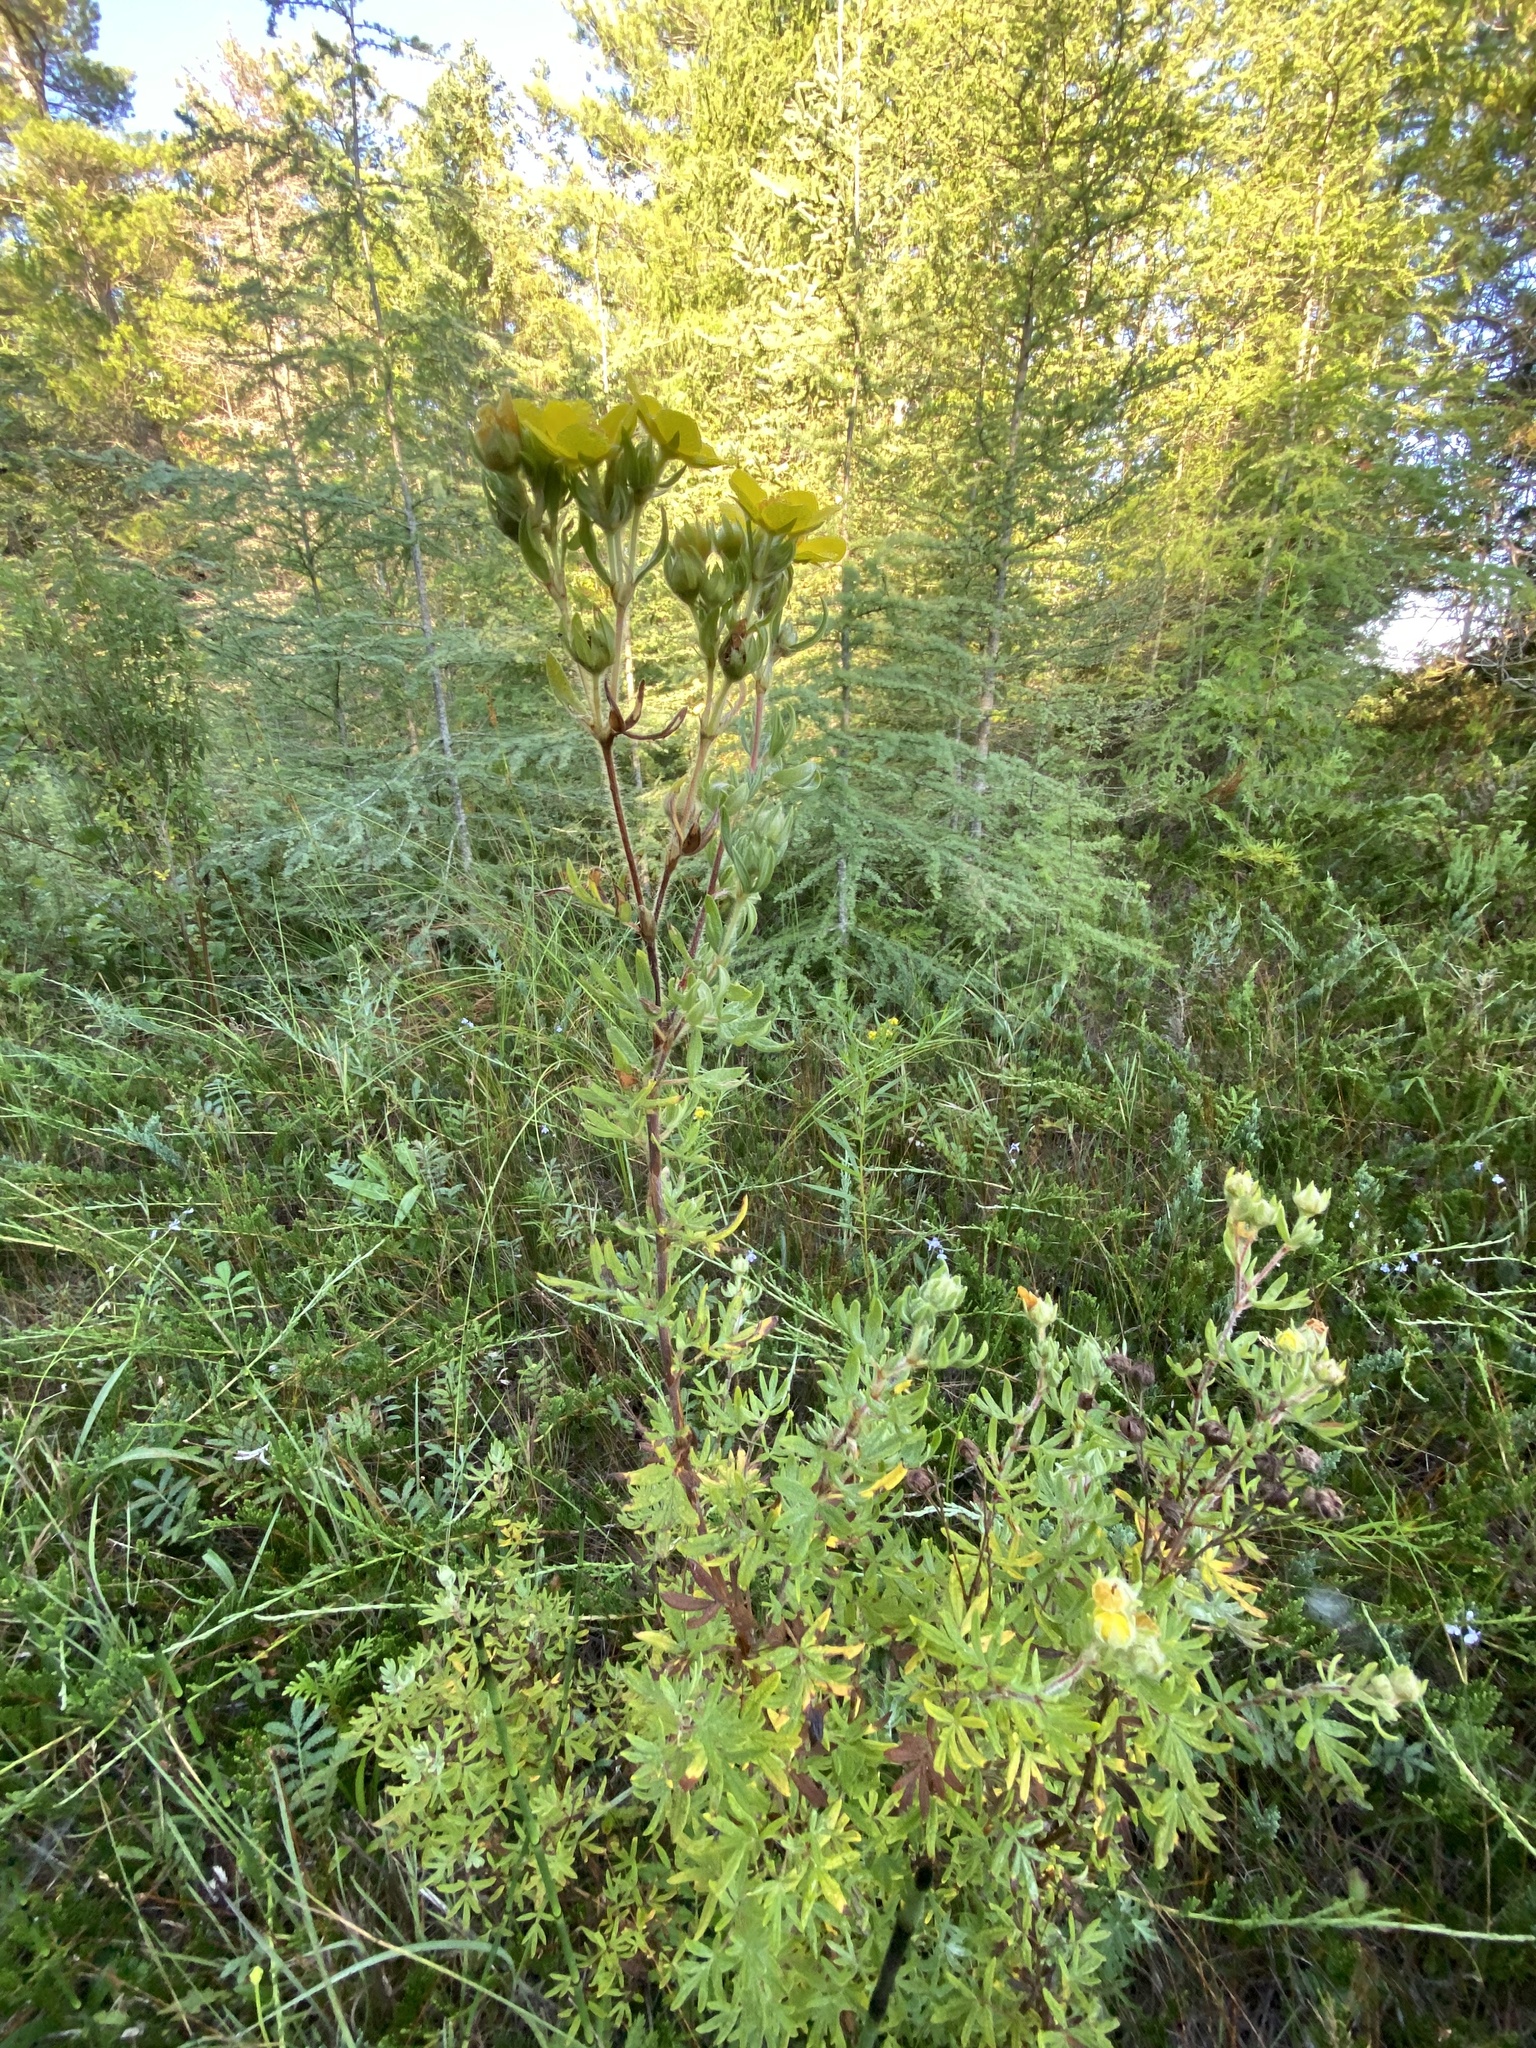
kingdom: Plantae
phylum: Tracheophyta
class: Magnoliopsida
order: Rosales
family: Rosaceae
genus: Dasiphora
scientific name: Dasiphora fruticosa
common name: Shrubby cinquefoil
